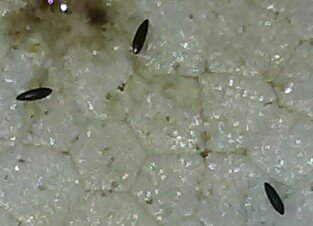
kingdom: Animalia
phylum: Arthropoda
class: Insecta
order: Diptera
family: Culicidae
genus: Aedes
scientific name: Aedes albopictus
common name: Tiger mosquito
